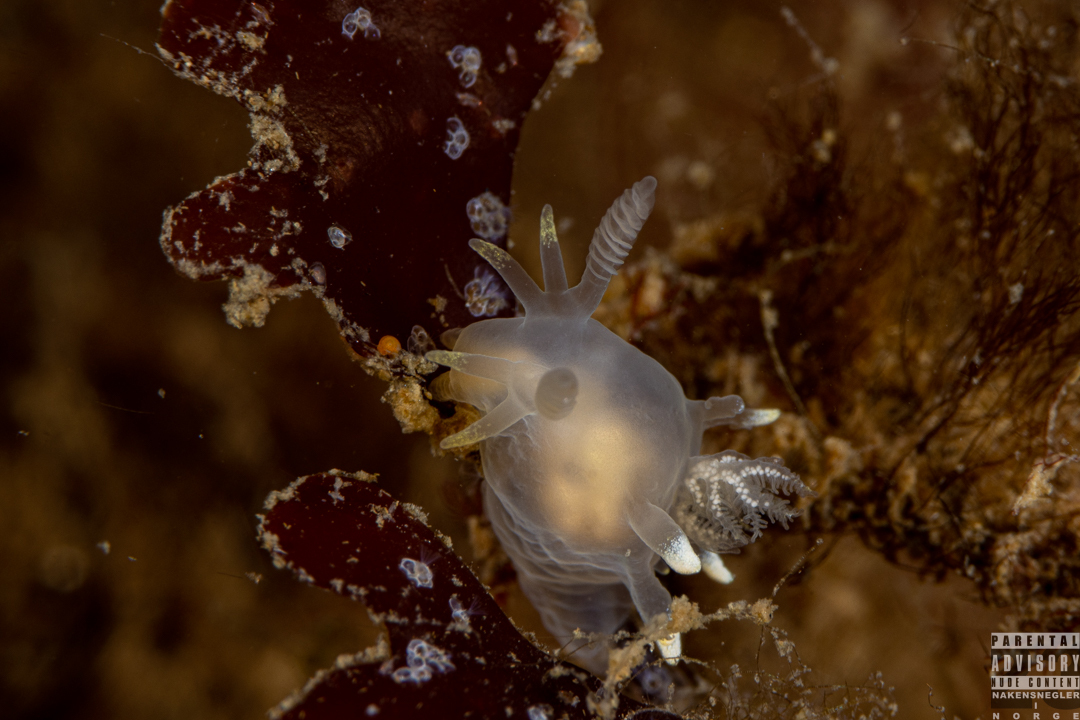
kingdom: Animalia
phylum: Mollusca
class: Gastropoda
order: Nudibranchia
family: Goniodorididae
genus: Ancula
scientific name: Ancula gibbosa
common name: Atlantic ancula
